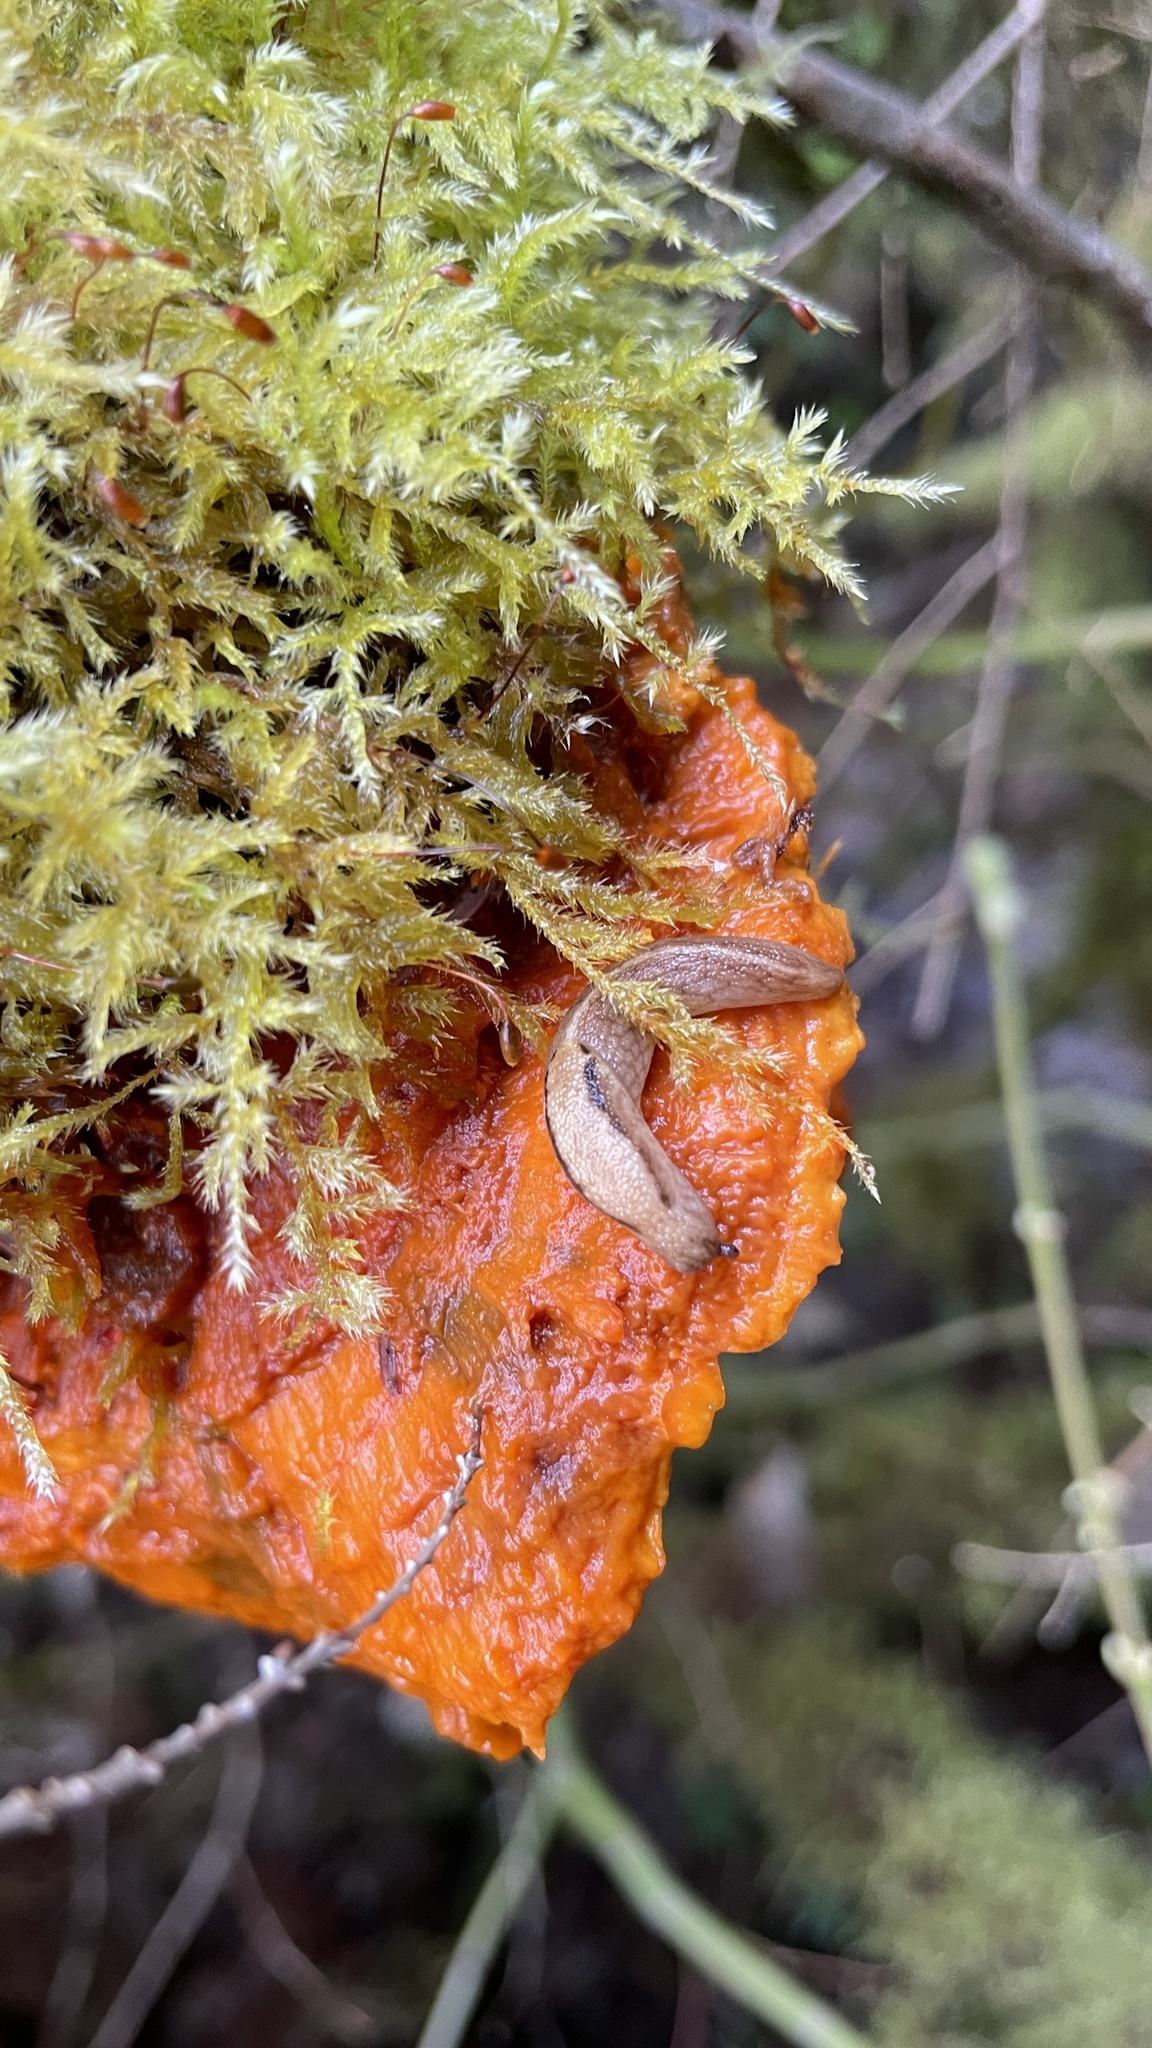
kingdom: Animalia
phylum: Mollusca
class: Gastropoda
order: Stylommatophora
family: Ariolimacidae
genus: Prophysaon
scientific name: Prophysaon andersonii
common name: Reticulate taildropper
